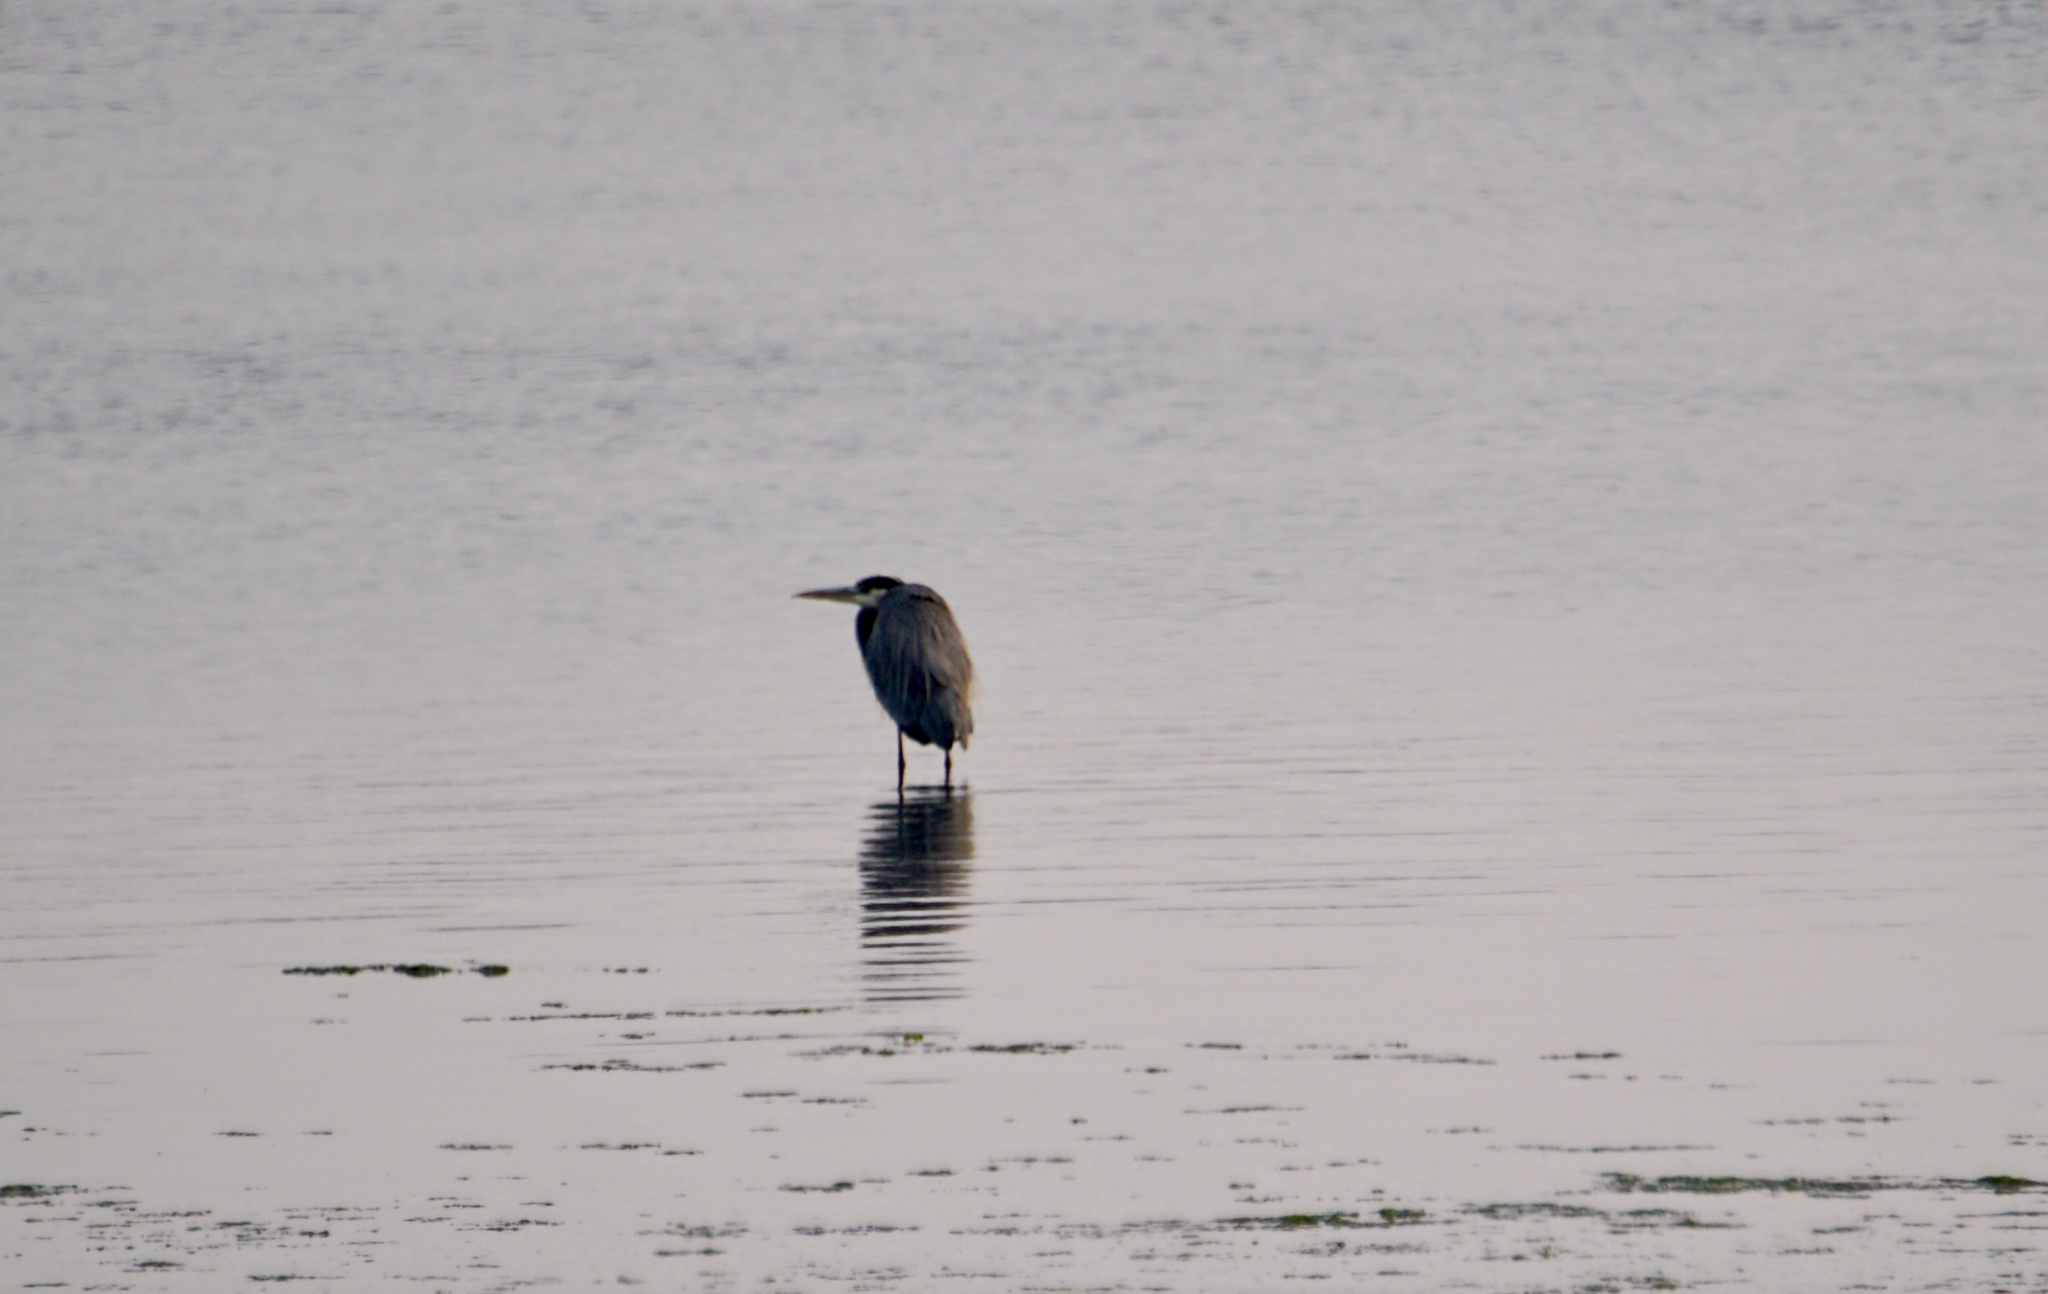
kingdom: Animalia
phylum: Chordata
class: Aves
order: Pelecaniformes
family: Ardeidae
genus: Ardea
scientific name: Ardea herodias
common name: Great blue heron
